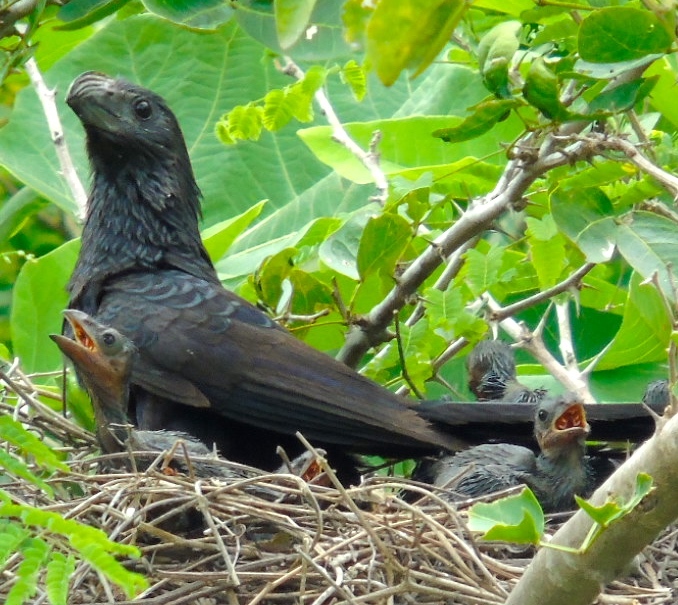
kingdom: Animalia
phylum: Chordata
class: Aves
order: Cuculiformes
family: Cuculidae
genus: Crotophaga
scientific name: Crotophaga sulcirostris
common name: Groove-billed ani
